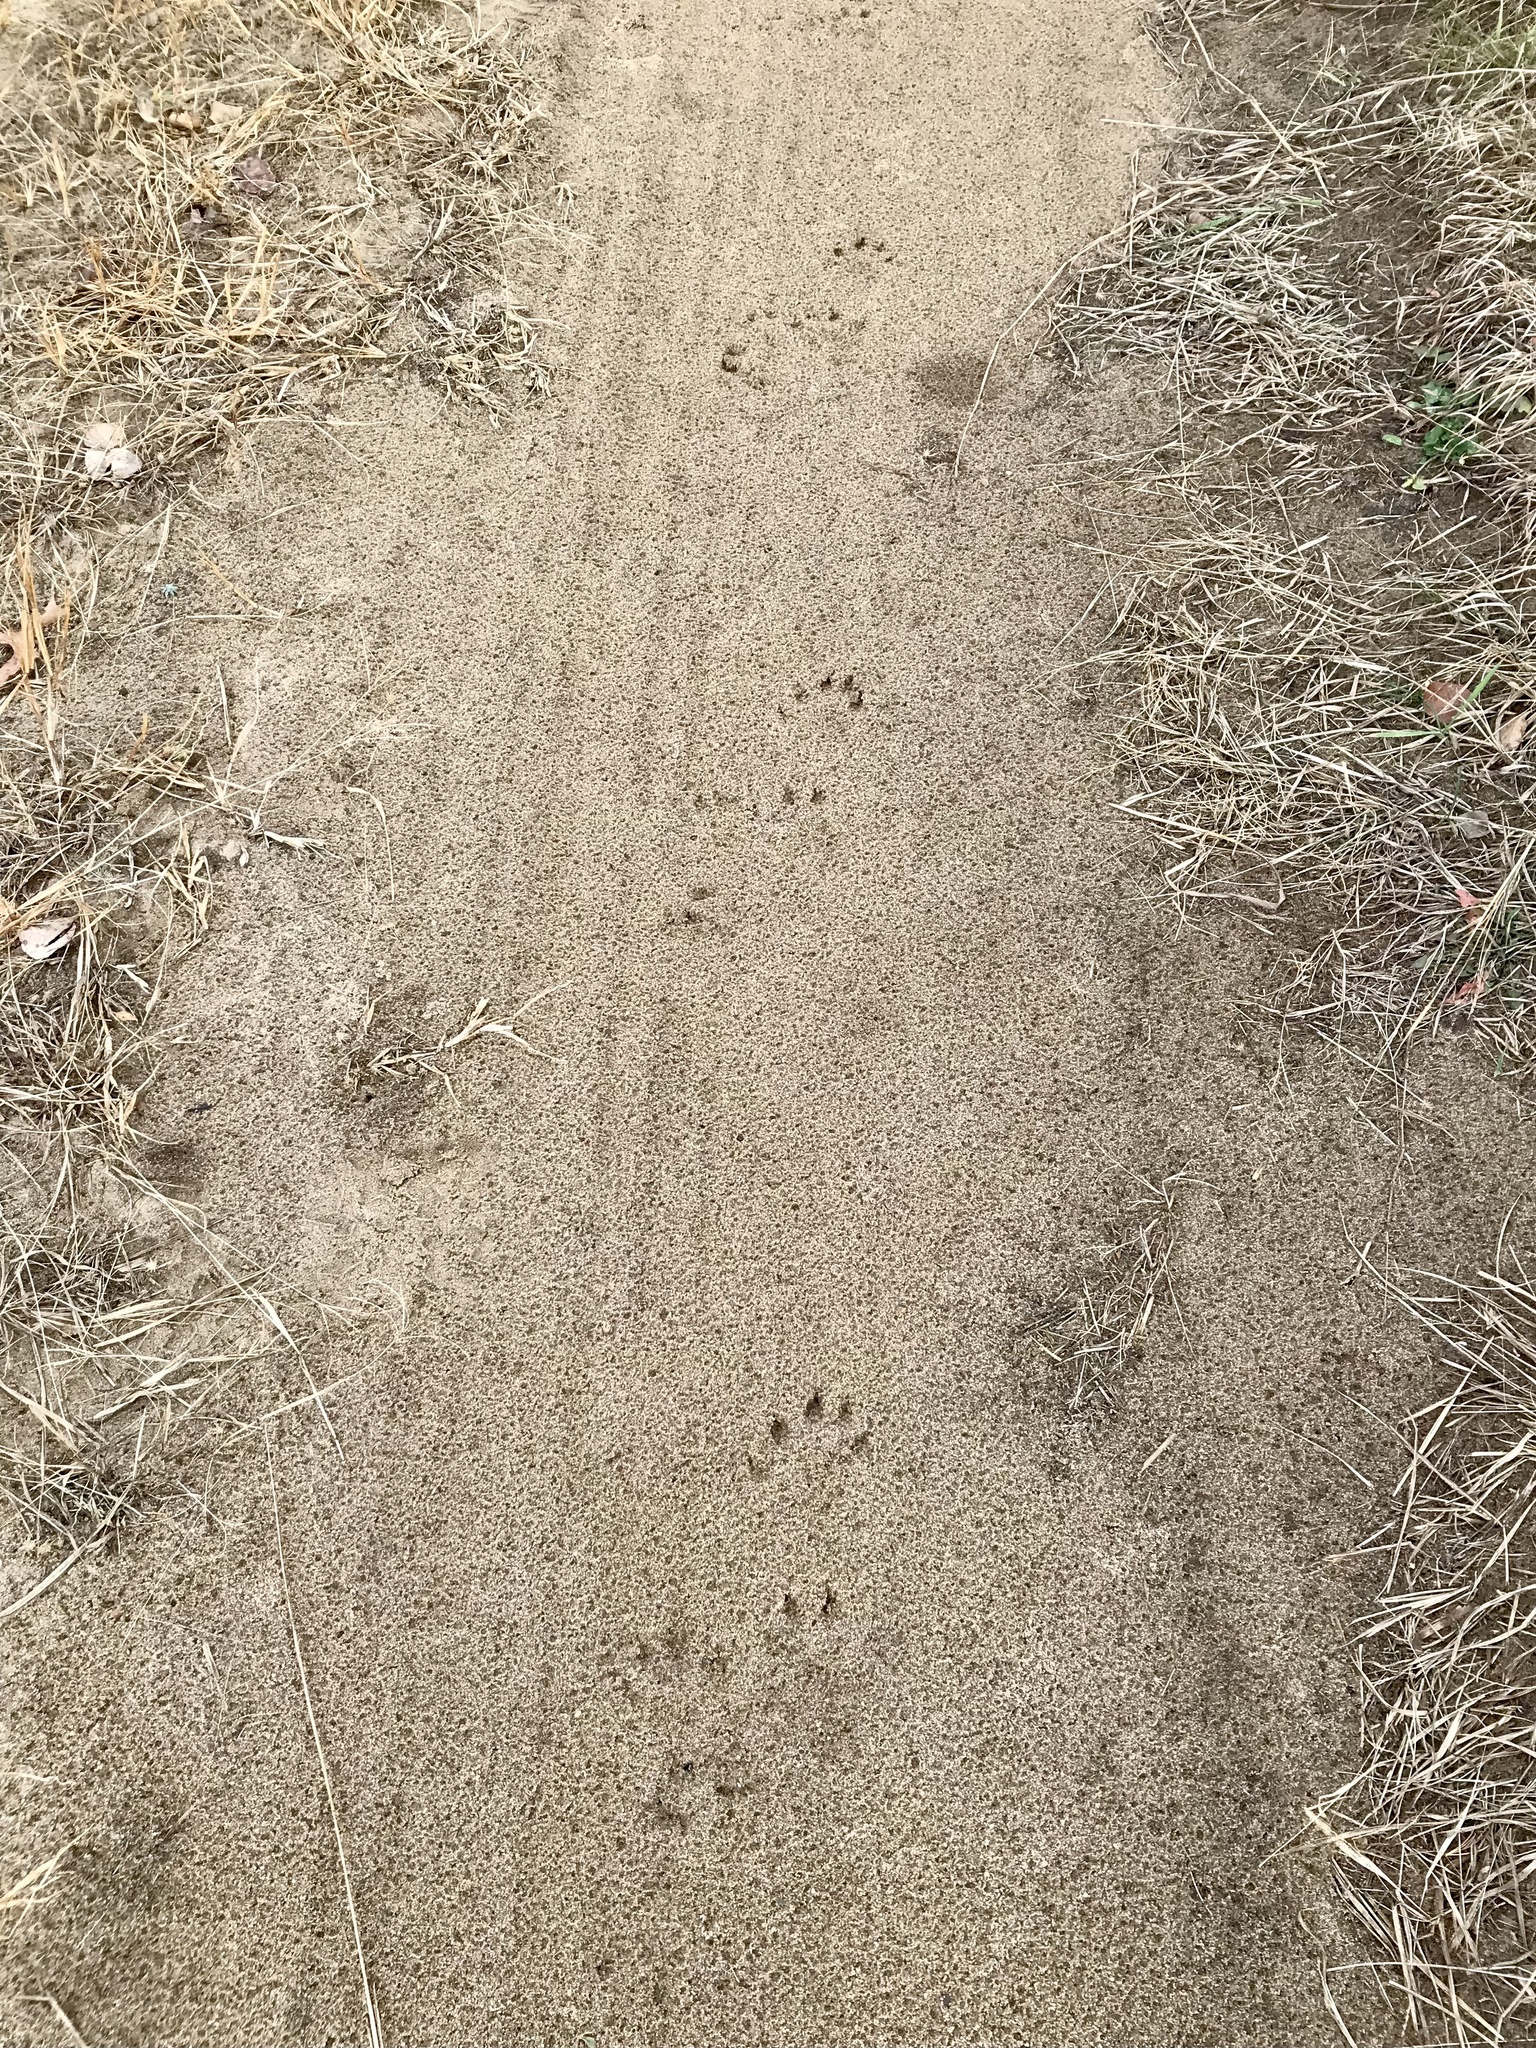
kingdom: Animalia
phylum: Chordata
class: Mammalia
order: Carnivora
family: Mustelidae
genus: Lontra
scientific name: Lontra canadensis
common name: North american river otter
